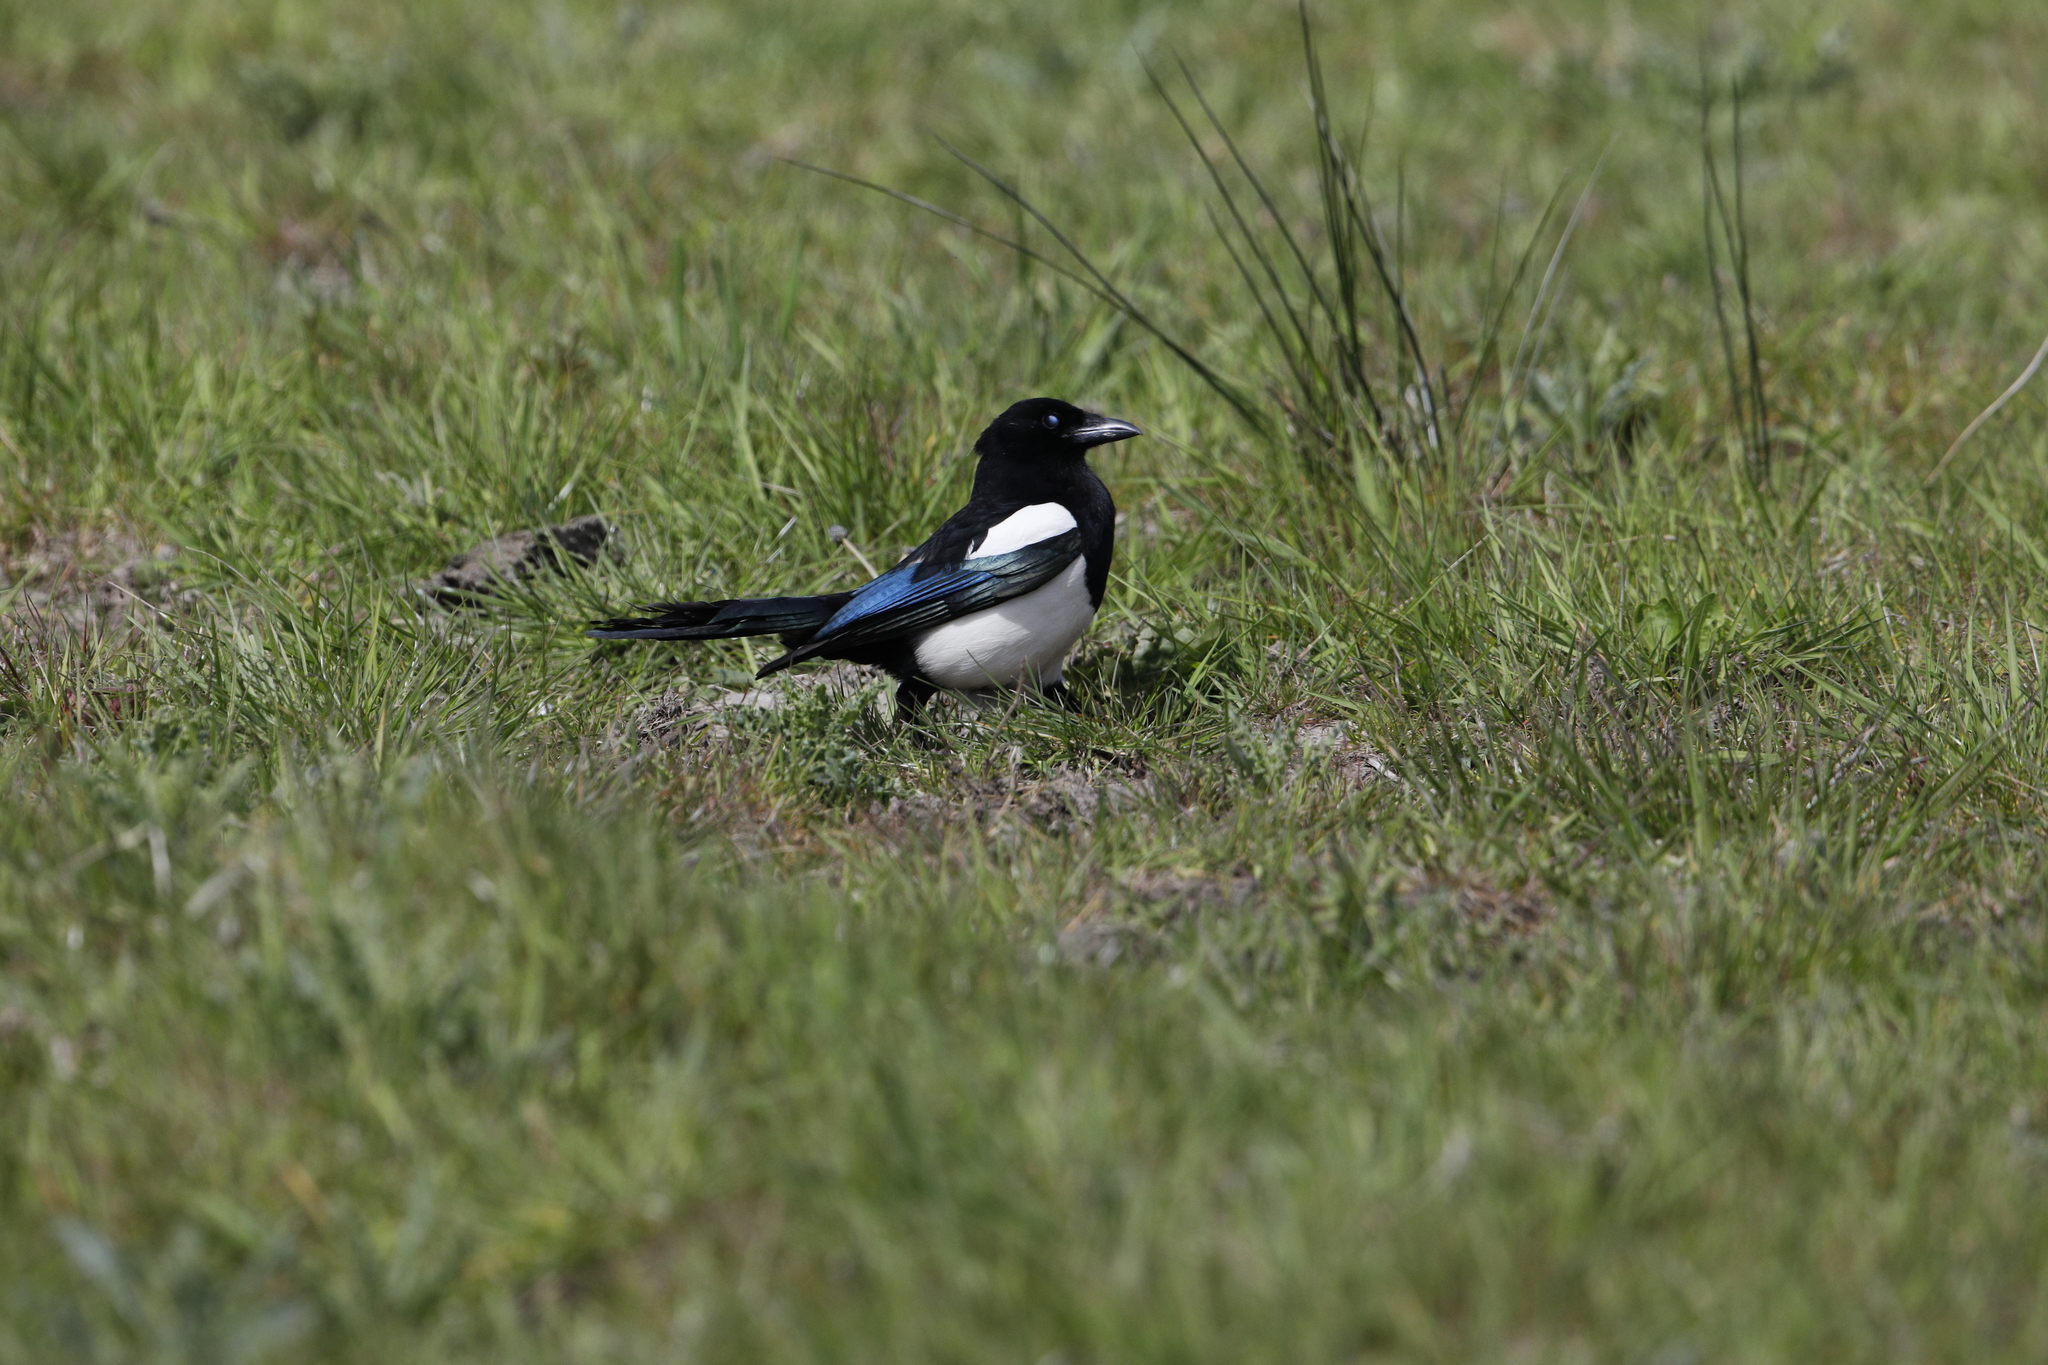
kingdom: Animalia
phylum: Chordata
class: Aves
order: Passeriformes
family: Corvidae
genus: Pica
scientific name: Pica pica
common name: Eurasian magpie
